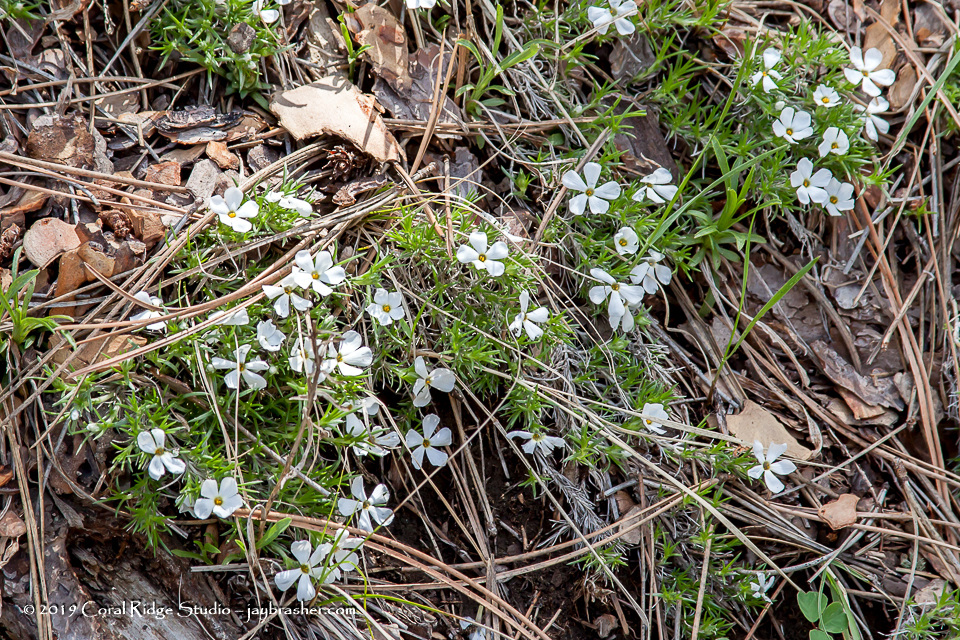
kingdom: Plantae
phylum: Tracheophyta
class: Magnoliopsida
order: Ericales
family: Polemoniaceae
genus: Phlox
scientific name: Phlox hoodii
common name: Moss phlox
